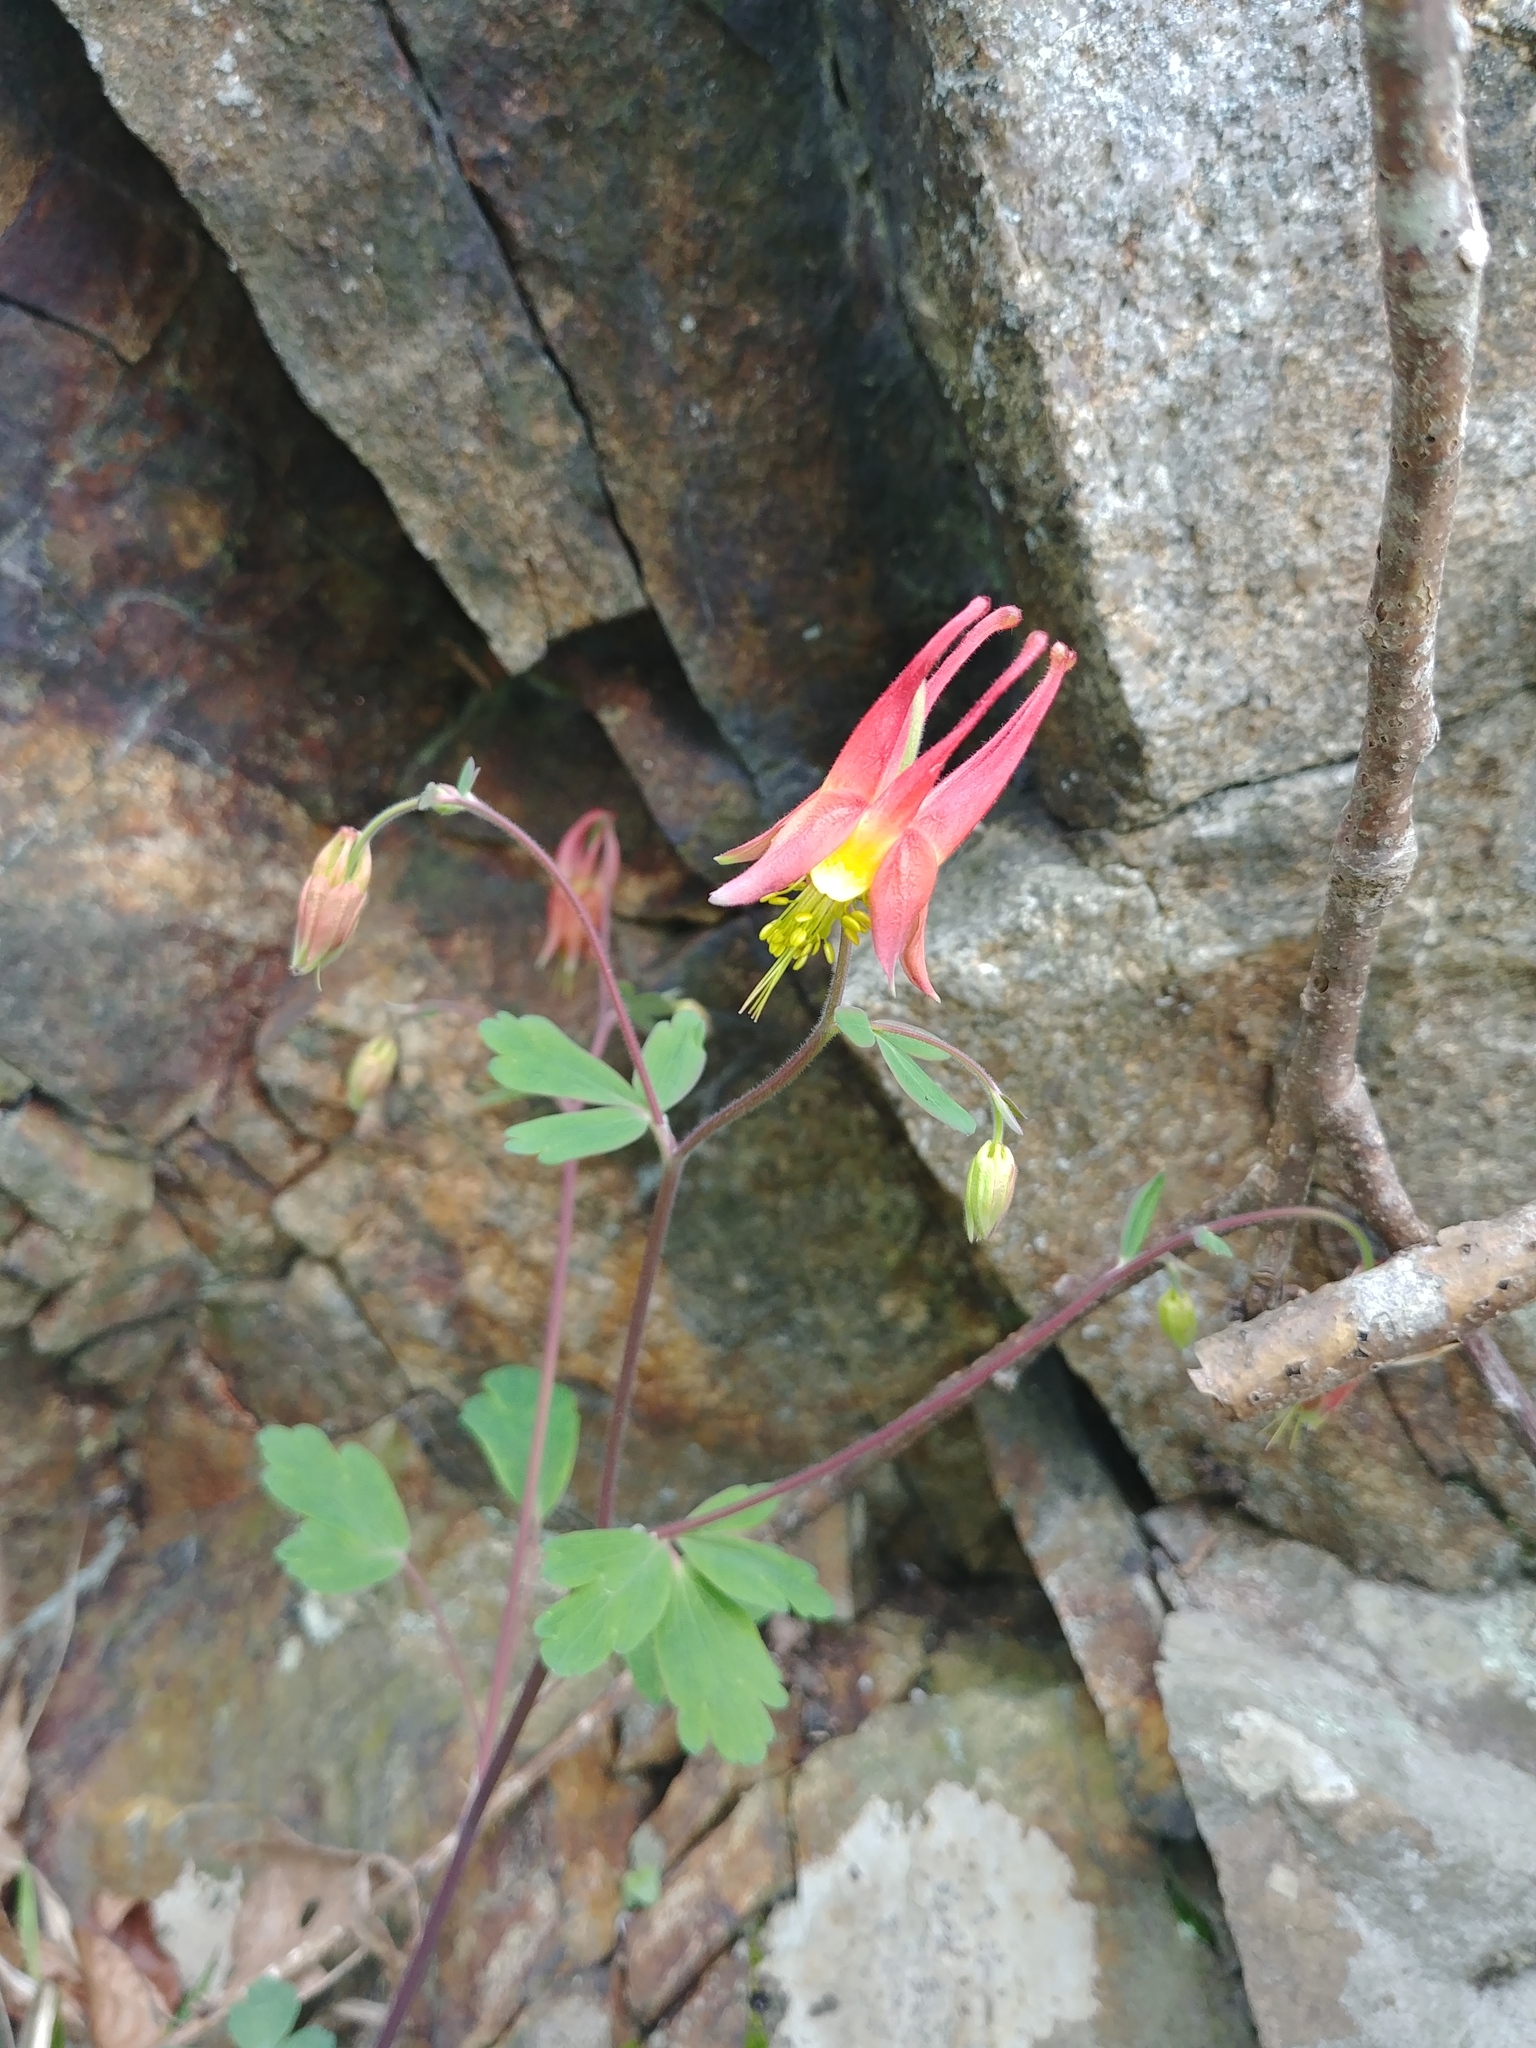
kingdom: Plantae
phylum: Tracheophyta
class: Magnoliopsida
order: Ranunculales
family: Ranunculaceae
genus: Aquilegia
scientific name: Aquilegia canadensis
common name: American columbine
